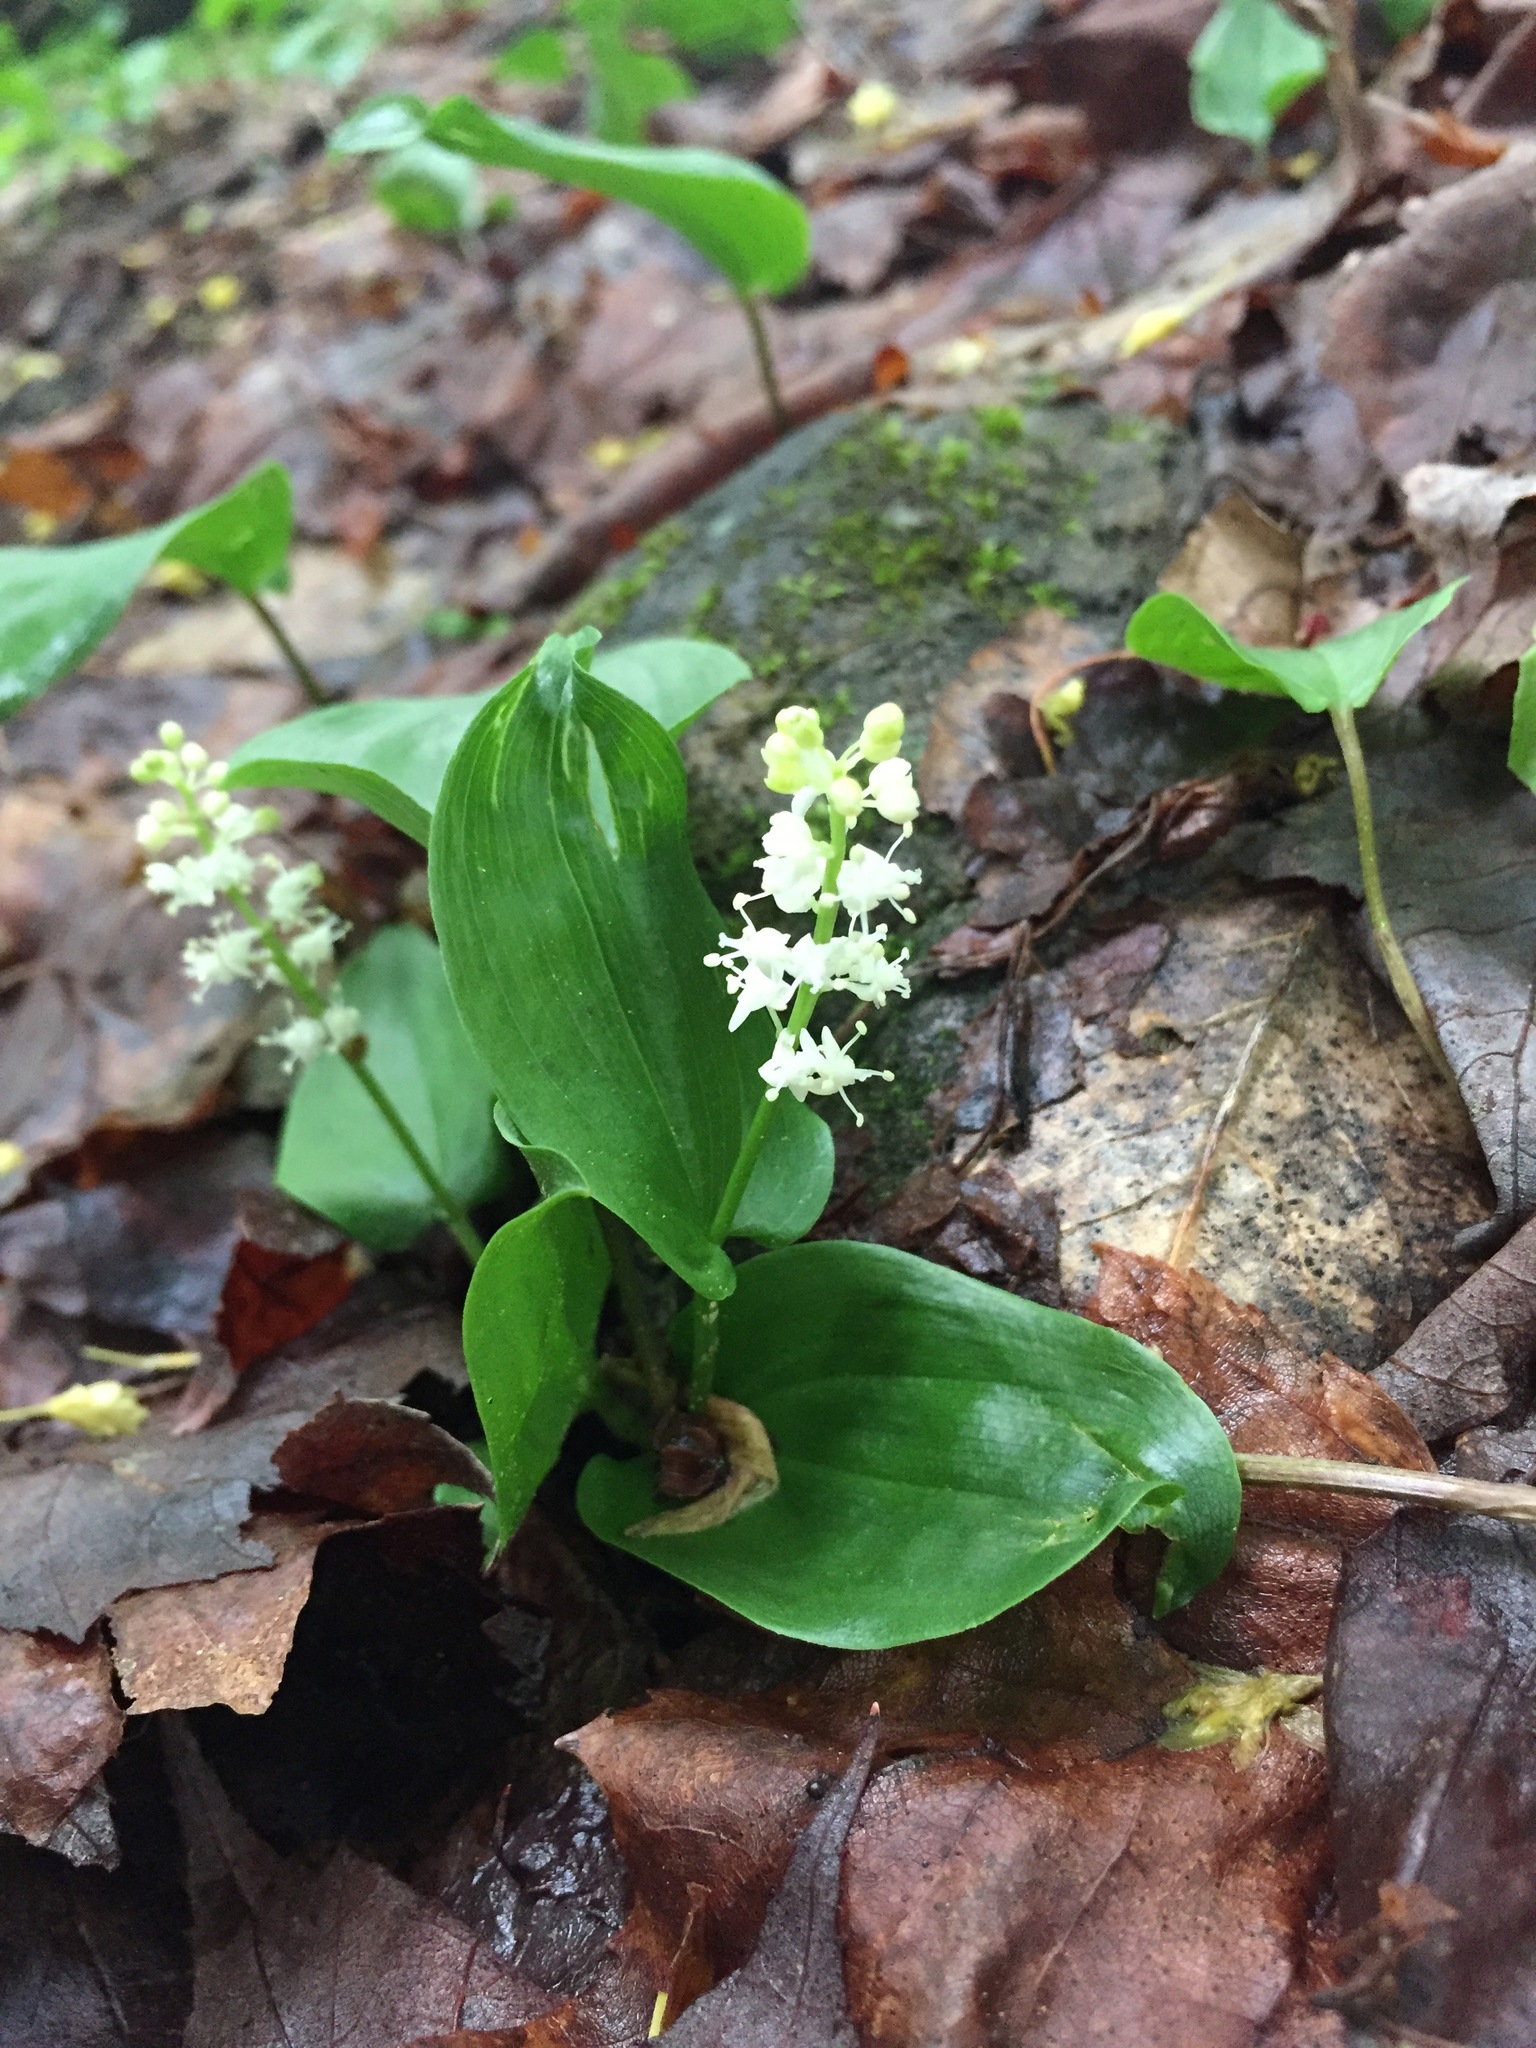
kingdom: Plantae
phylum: Tracheophyta
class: Liliopsida
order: Asparagales
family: Asparagaceae
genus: Maianthemum
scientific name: Maianthemum canadense
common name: False lily-of-the-valley
